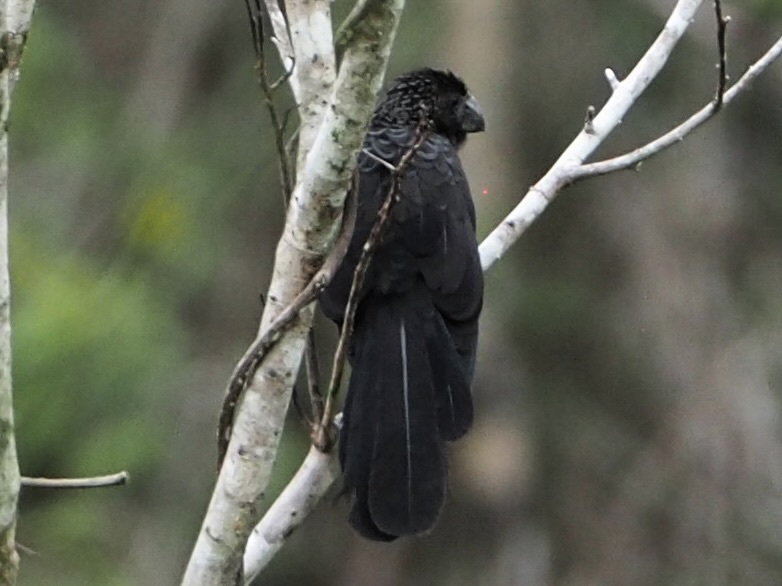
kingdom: Animalia
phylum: Chordata
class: Aves
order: Cuculiformes
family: Cuculidae
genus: Crotophaga
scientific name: Crotophaga ani
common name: Smooth-billed ani
